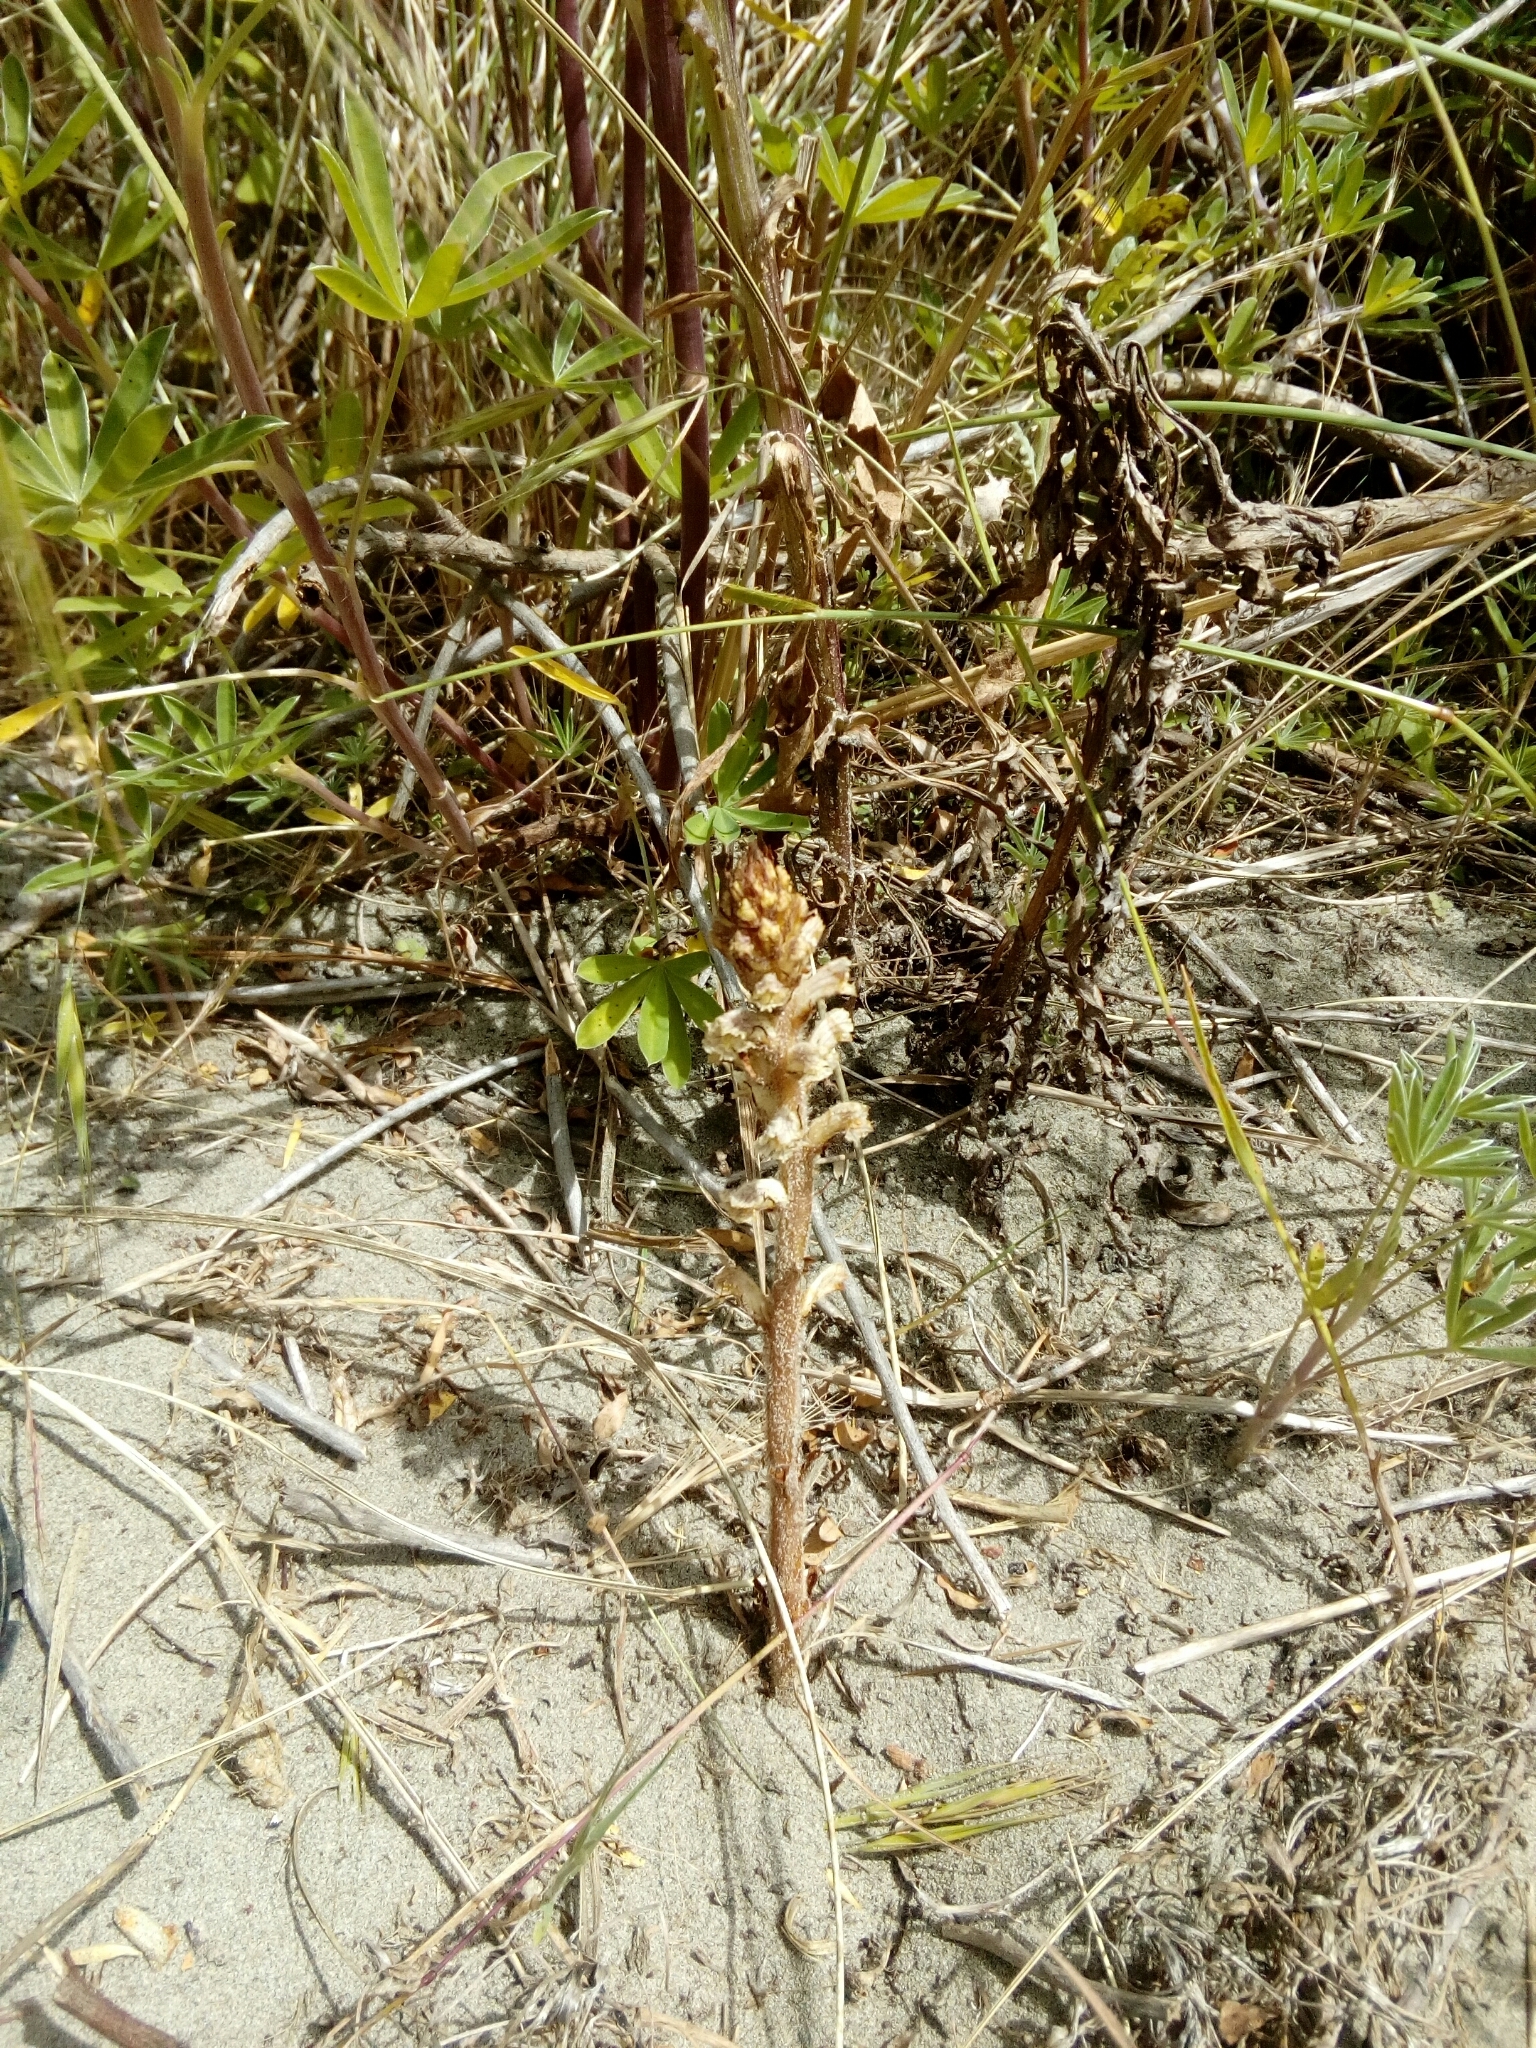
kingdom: Plantae
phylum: Tracheophyta
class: Magnoliopsida
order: Lamiales
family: Orobanchaceae
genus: Orobanche
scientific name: Orobanche minor
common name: Common broomrape
